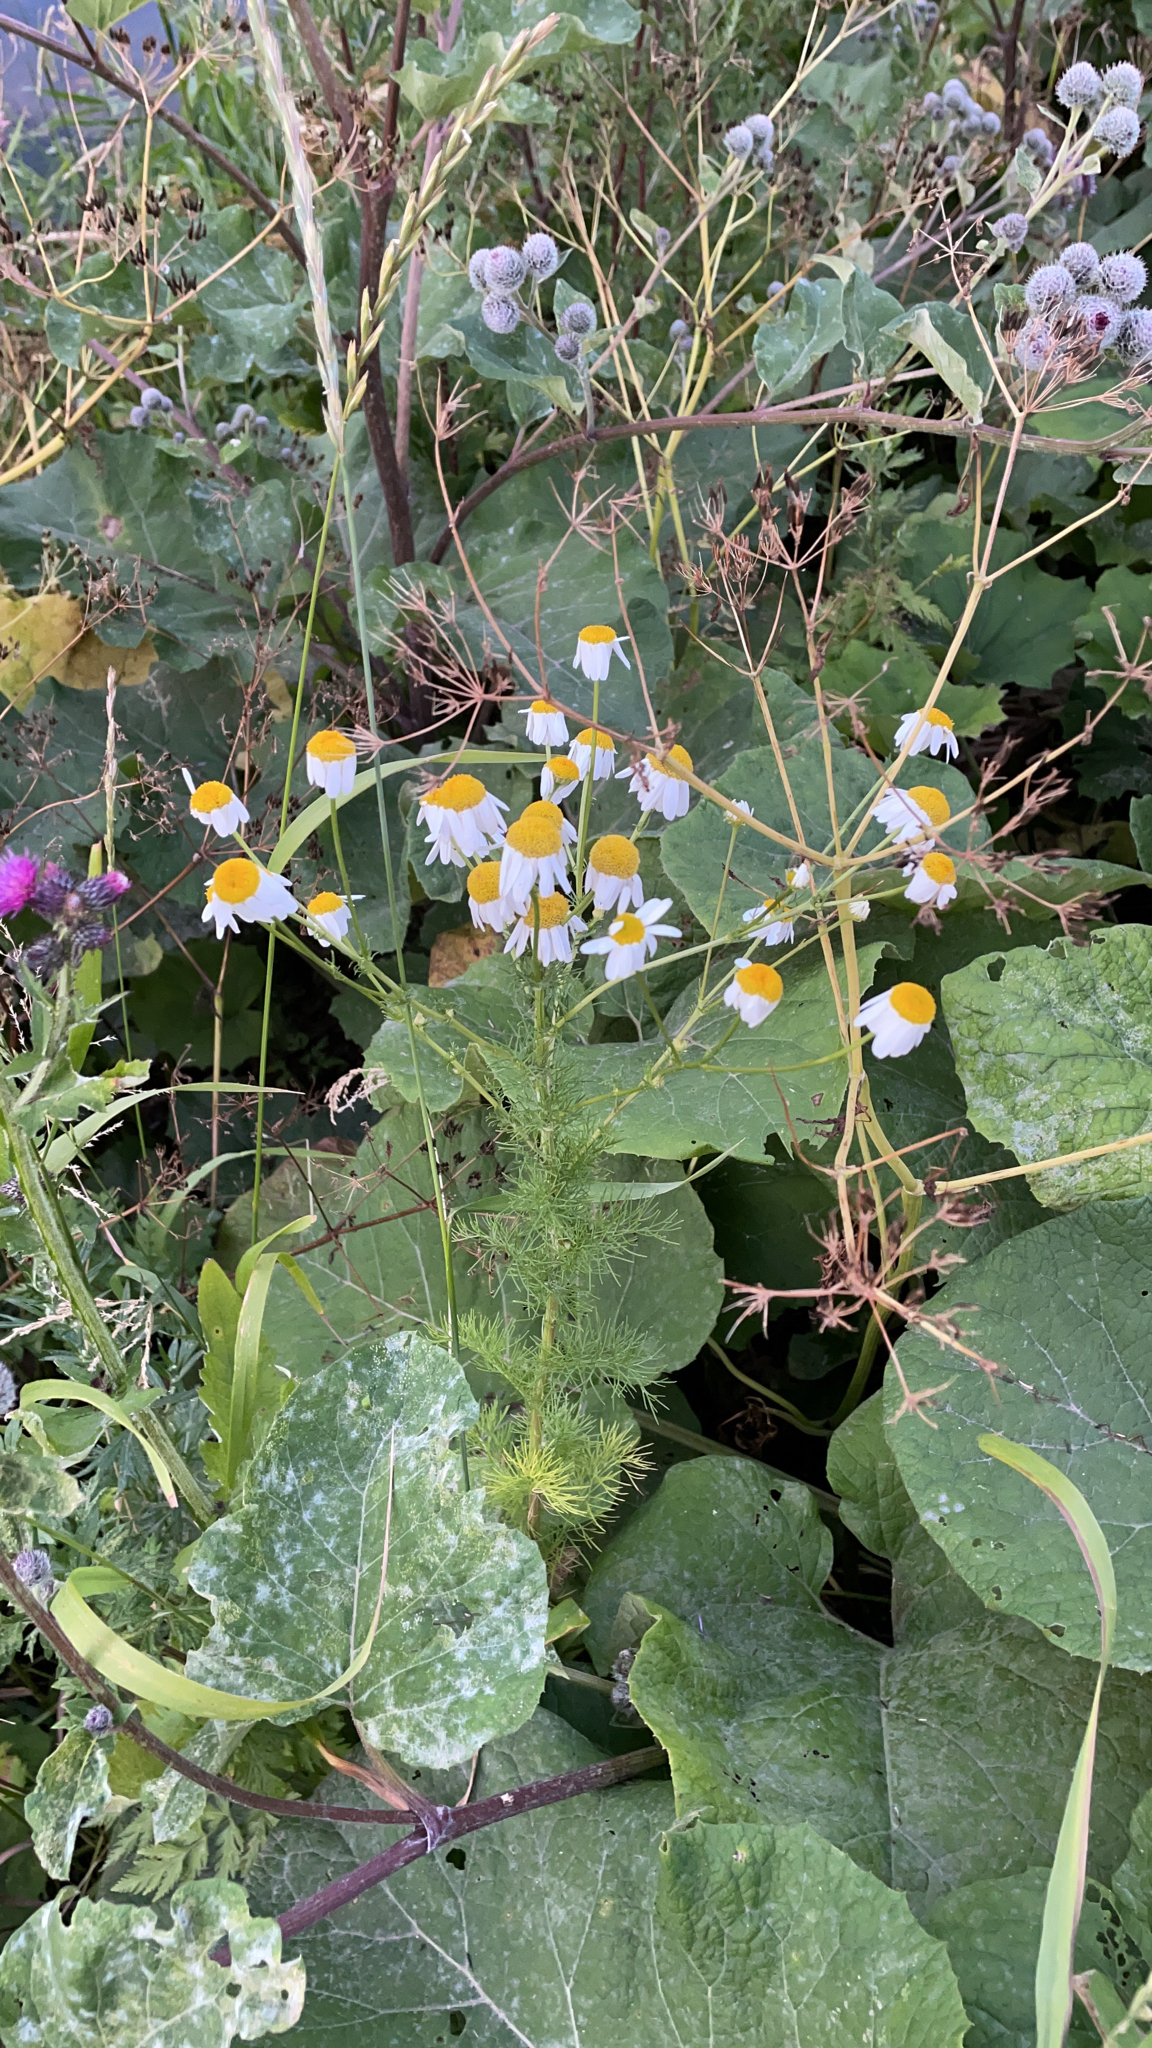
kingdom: Plantae
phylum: Tracheophyta
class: Magnoliopsida
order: Asterales
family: Asteraceae
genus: Tripleurospermum
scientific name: Tripleurospermum inodorum
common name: Scentless mayweed
